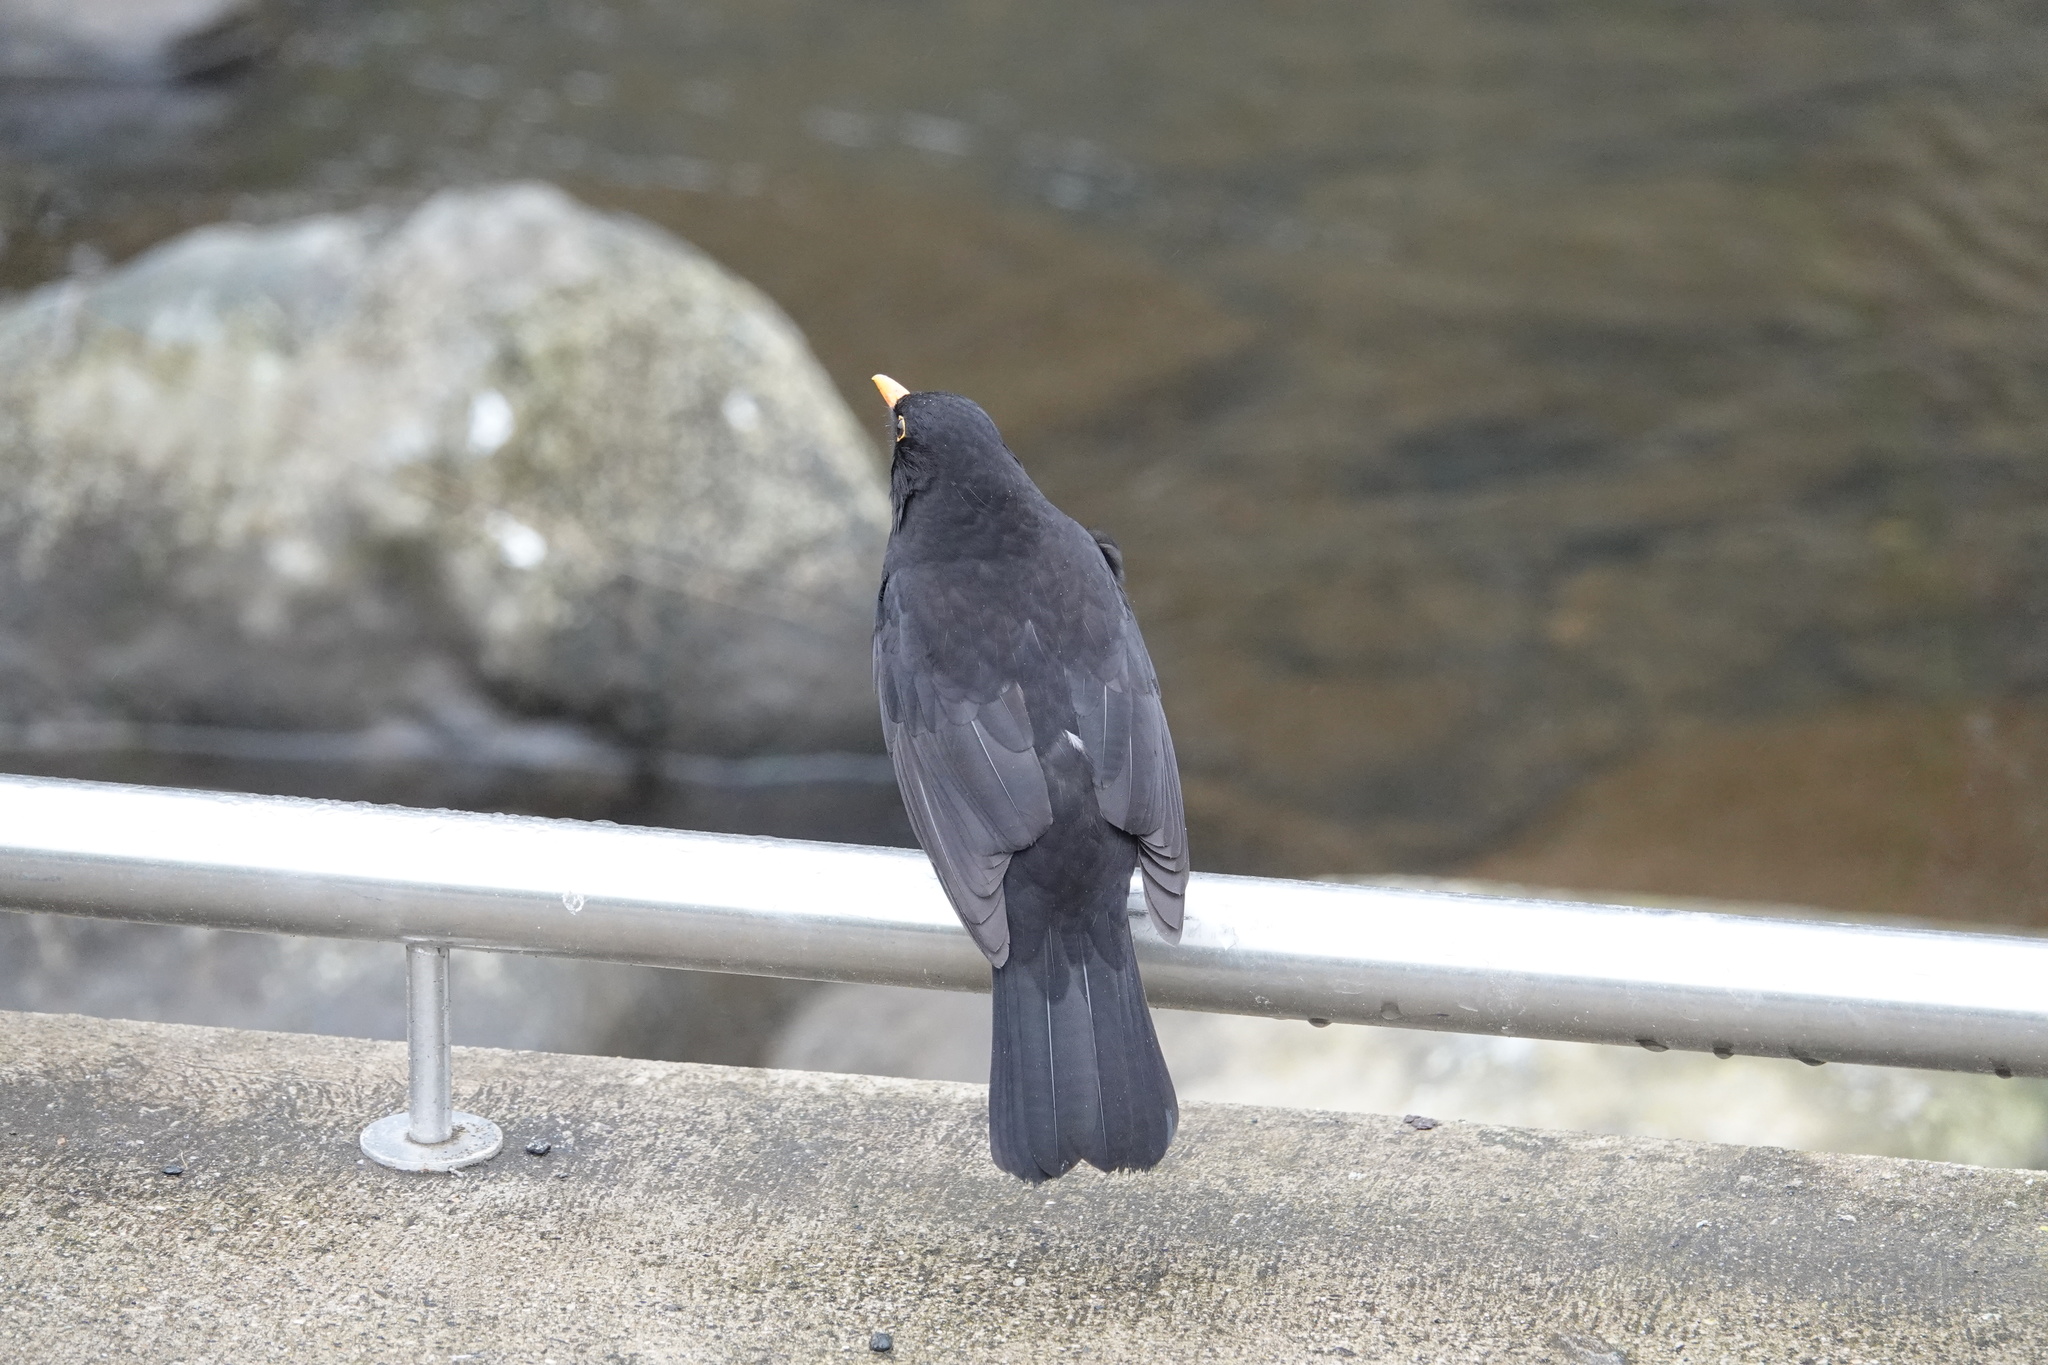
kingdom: Animalia
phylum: Chordata
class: Aves
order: Passeriformes
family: Turdidae
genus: Turdus
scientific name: Turdus merula
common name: Common blackbird
